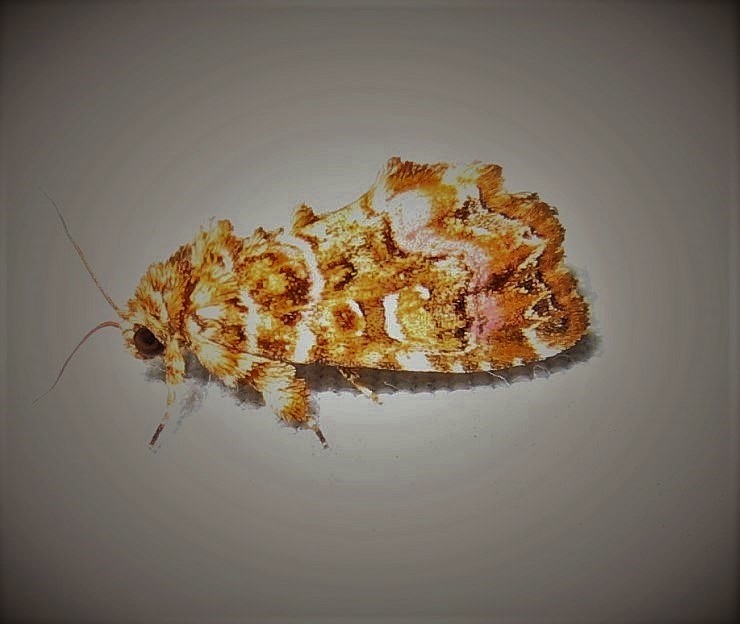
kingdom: Animalia
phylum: Arthropoda
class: Insecta
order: Lepidoptera
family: Noctuidae
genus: Callopistria
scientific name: Callopistria mollissima
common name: Pink-shaded fern moth
